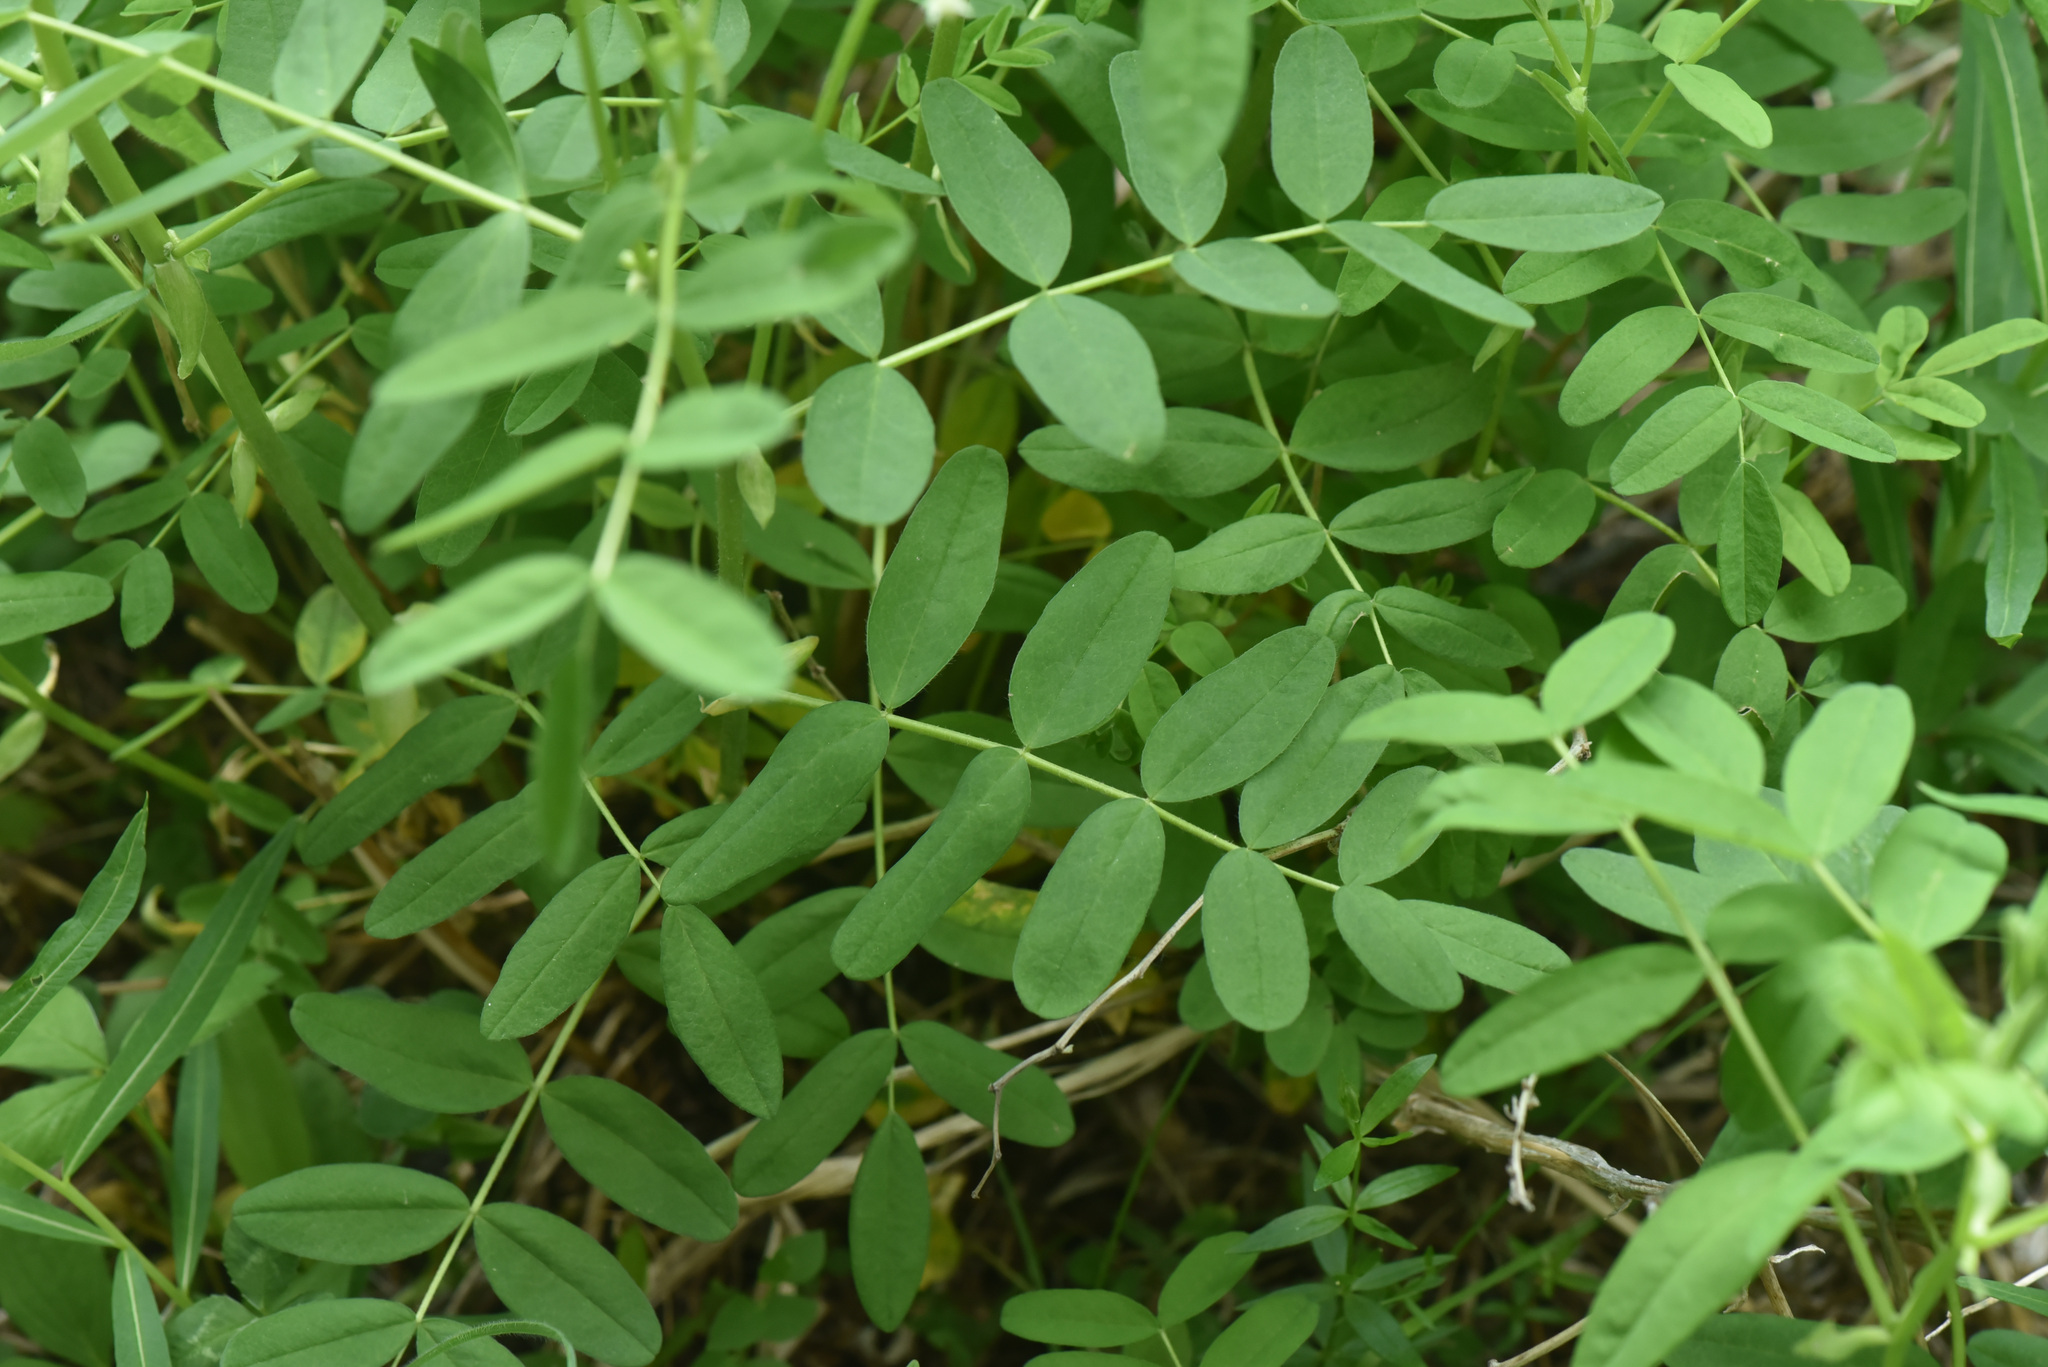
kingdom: Plantae
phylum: Tracheophyta
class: Magnoliopsida
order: Fabales
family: Fabaceae
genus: Astragalus
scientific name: Astragalus americanus
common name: American milk-vetch
